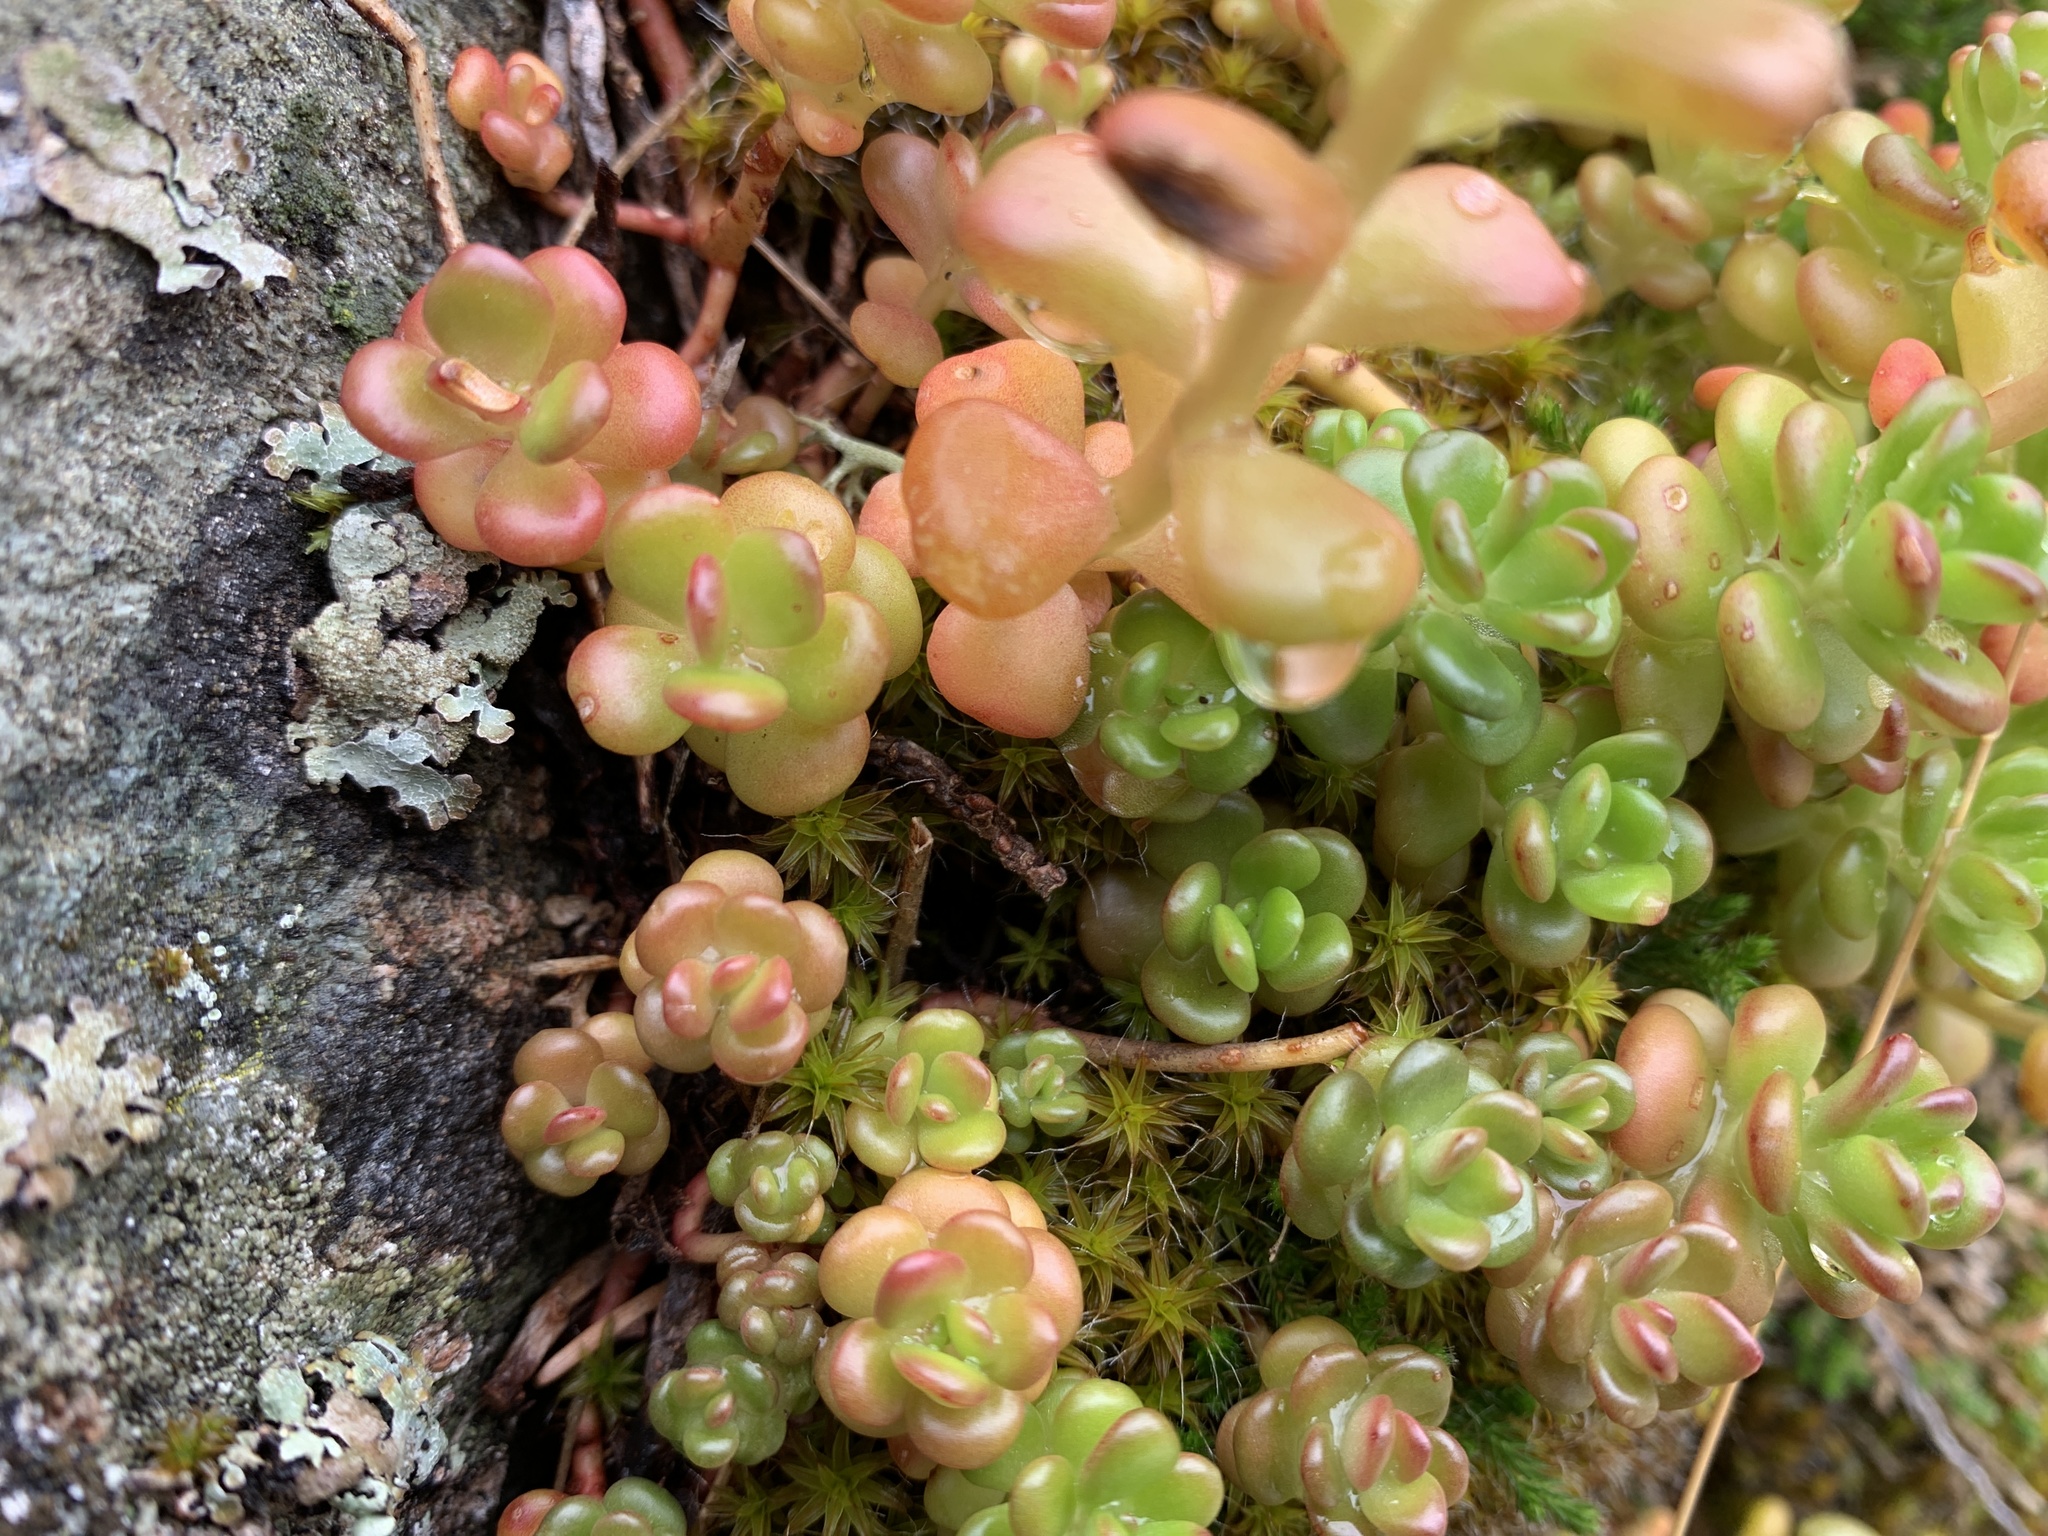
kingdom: Plantae
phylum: Tracheophyta
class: Magnoliopsida
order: Saxifragales
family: Crassulaceae
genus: Sedum
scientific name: Sedum oreganum
